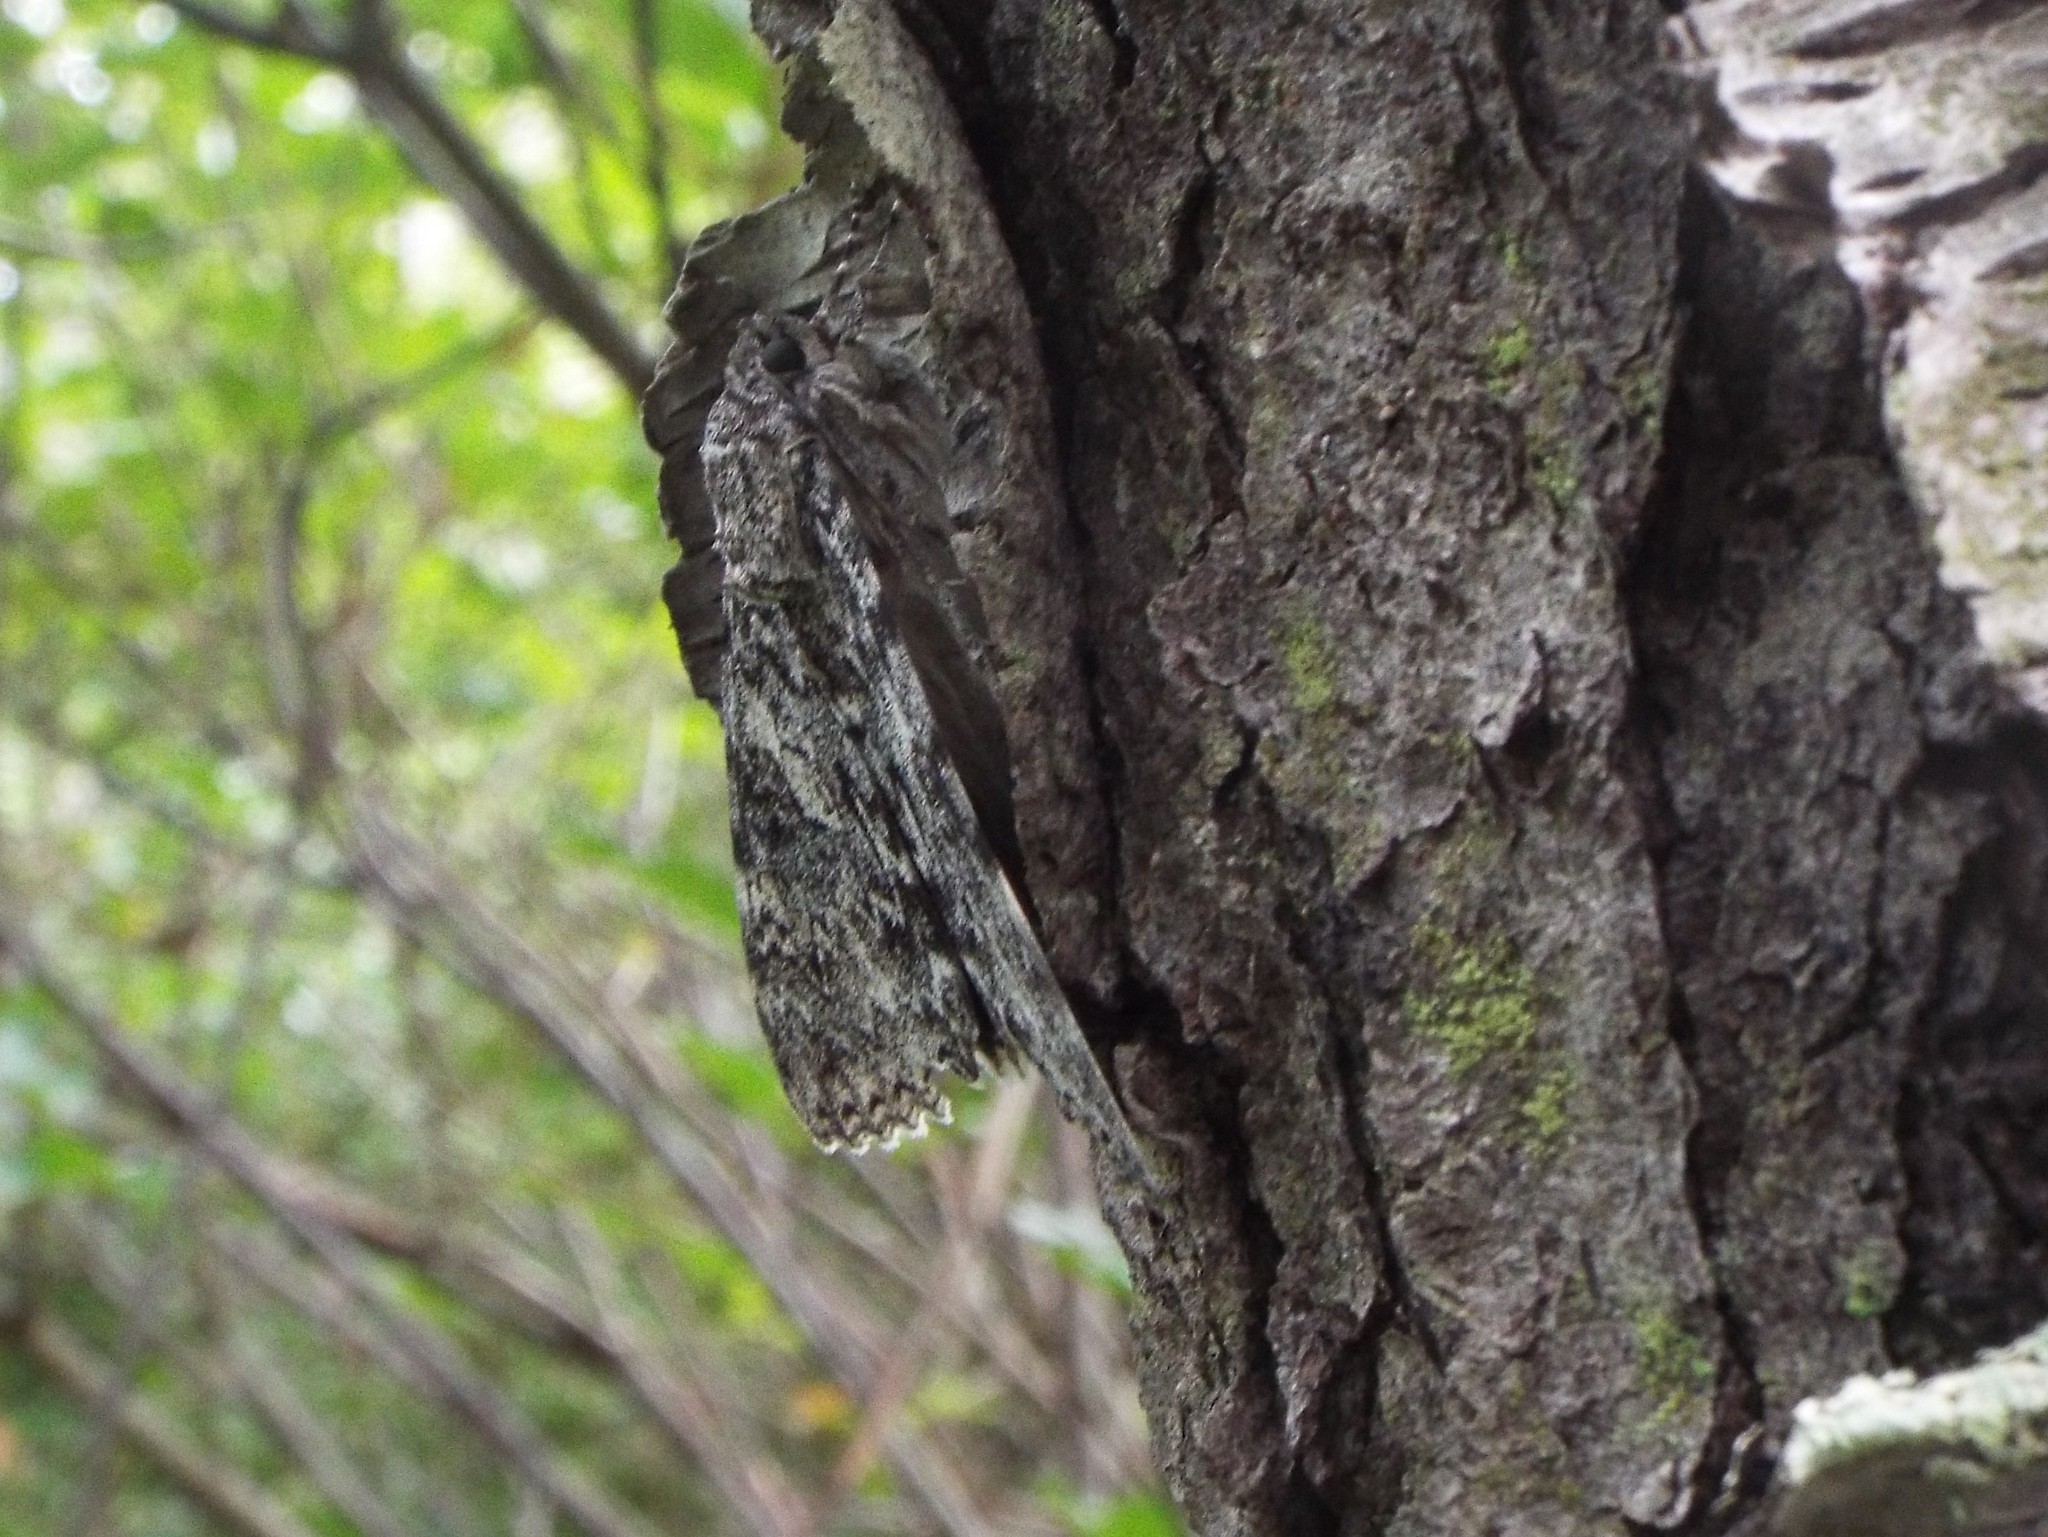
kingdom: Animalia
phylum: Arthropoda
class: Insecta
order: Lepidoptera
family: Erebidae
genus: Catocala
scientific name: Catocala unijuga
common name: Once-married underwing
